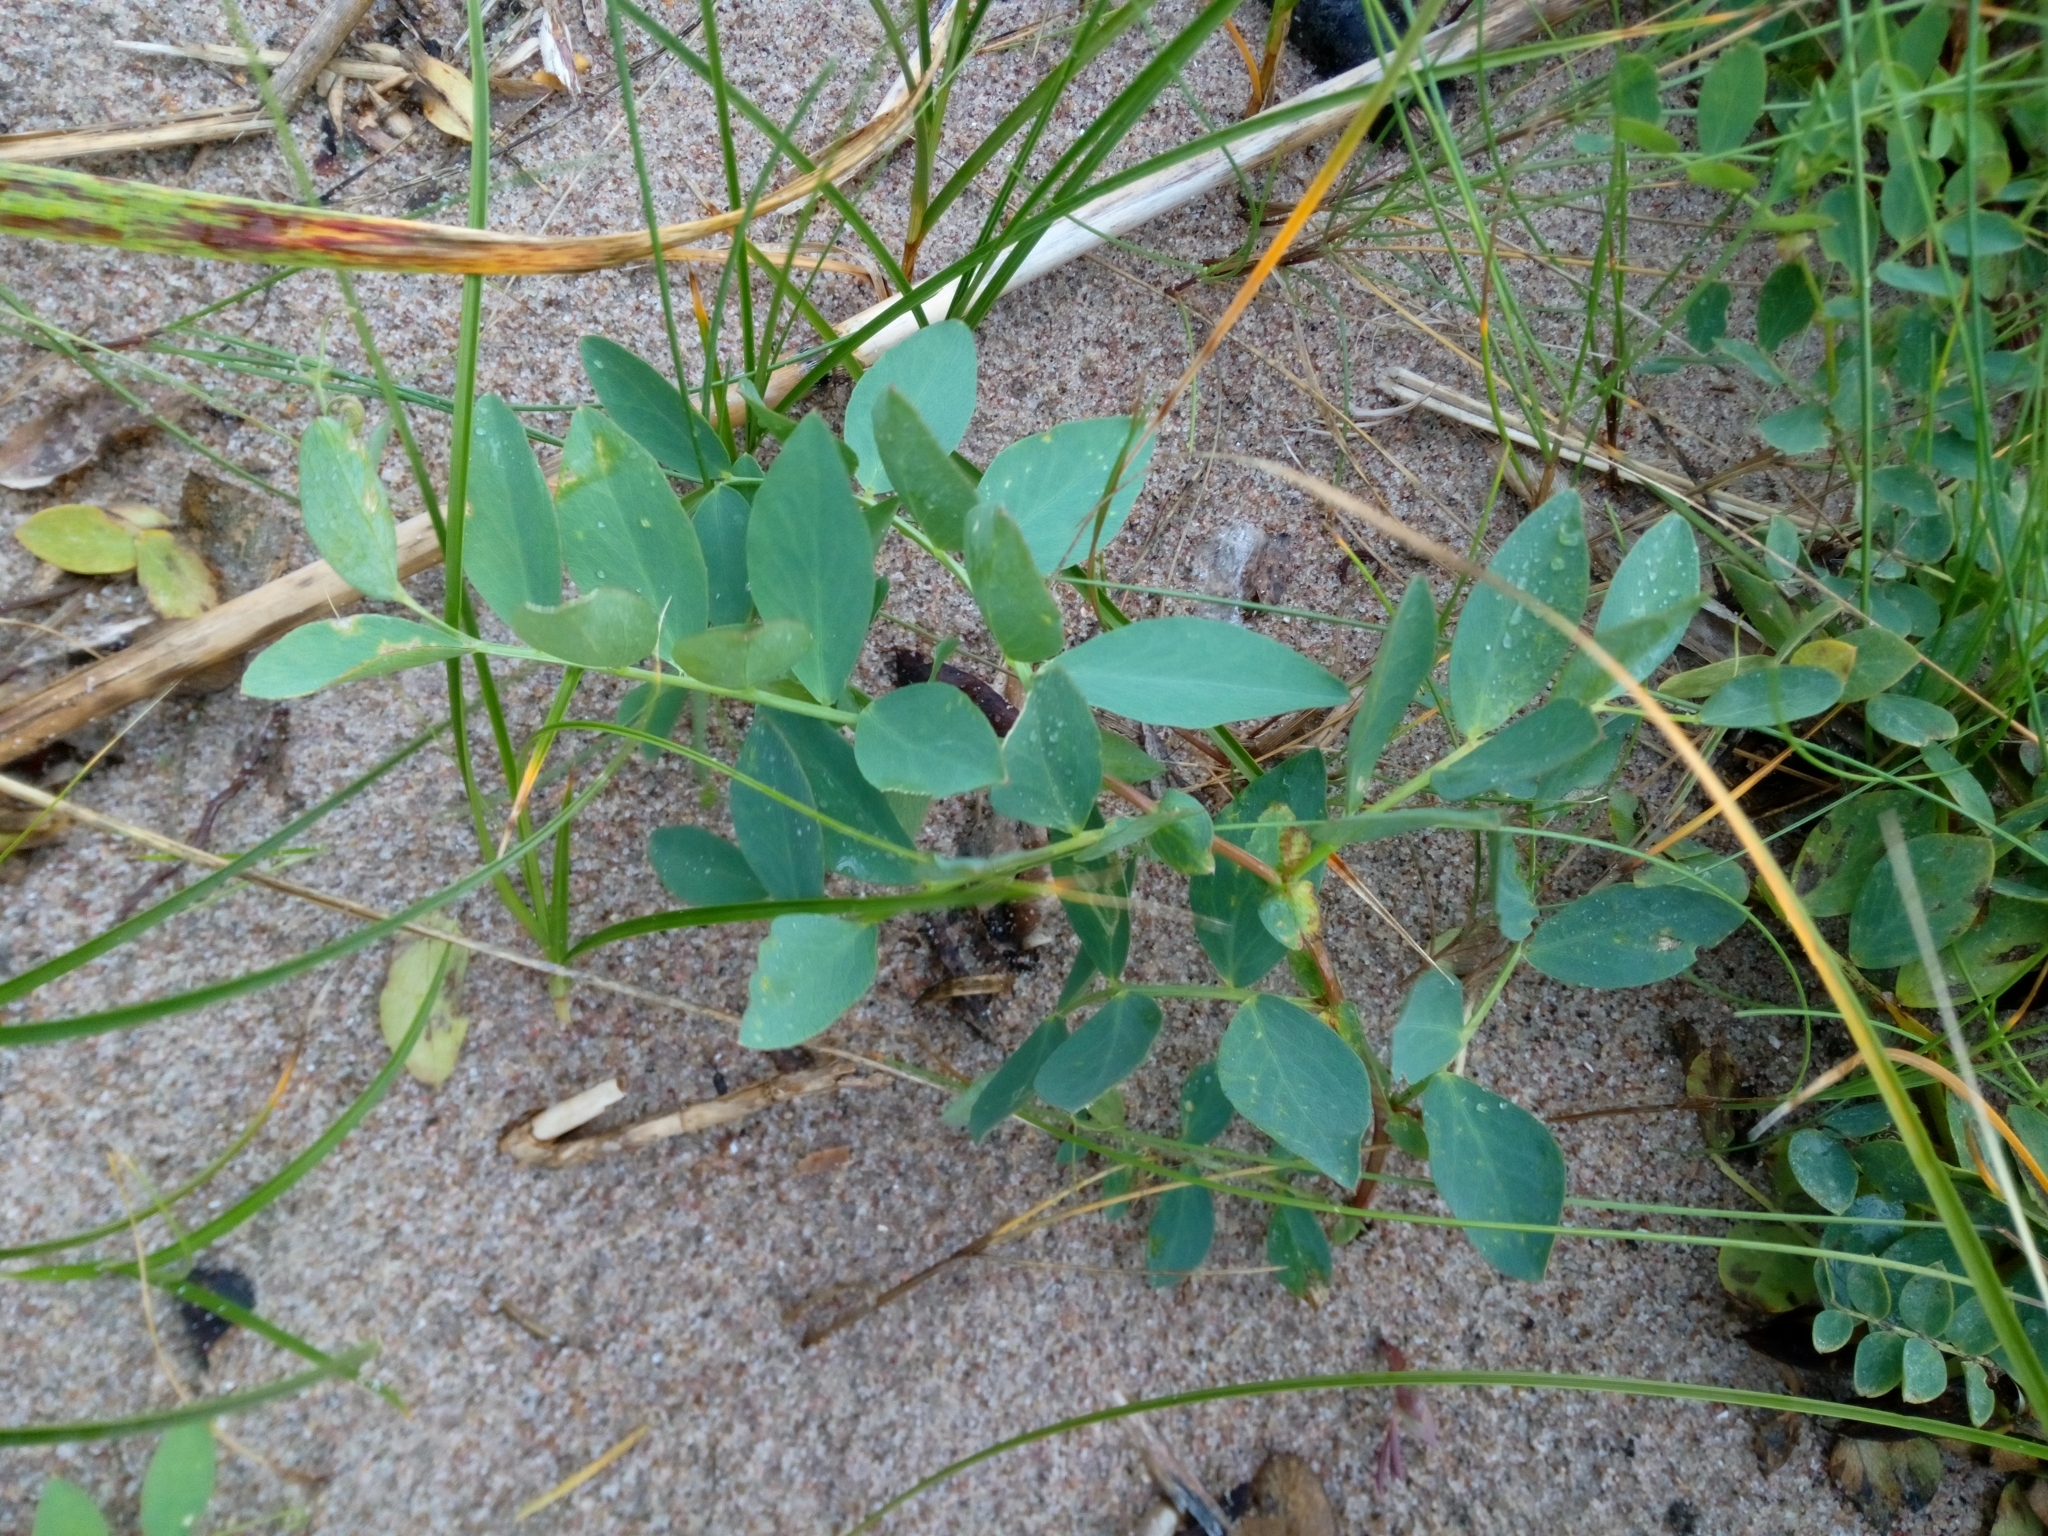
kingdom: Plantae
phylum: Tracheophyta
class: Magnoliopsida
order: Fabales
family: Fabaceae
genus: Lathyrus
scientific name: Lathyrus japonicus
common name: Sea pea
